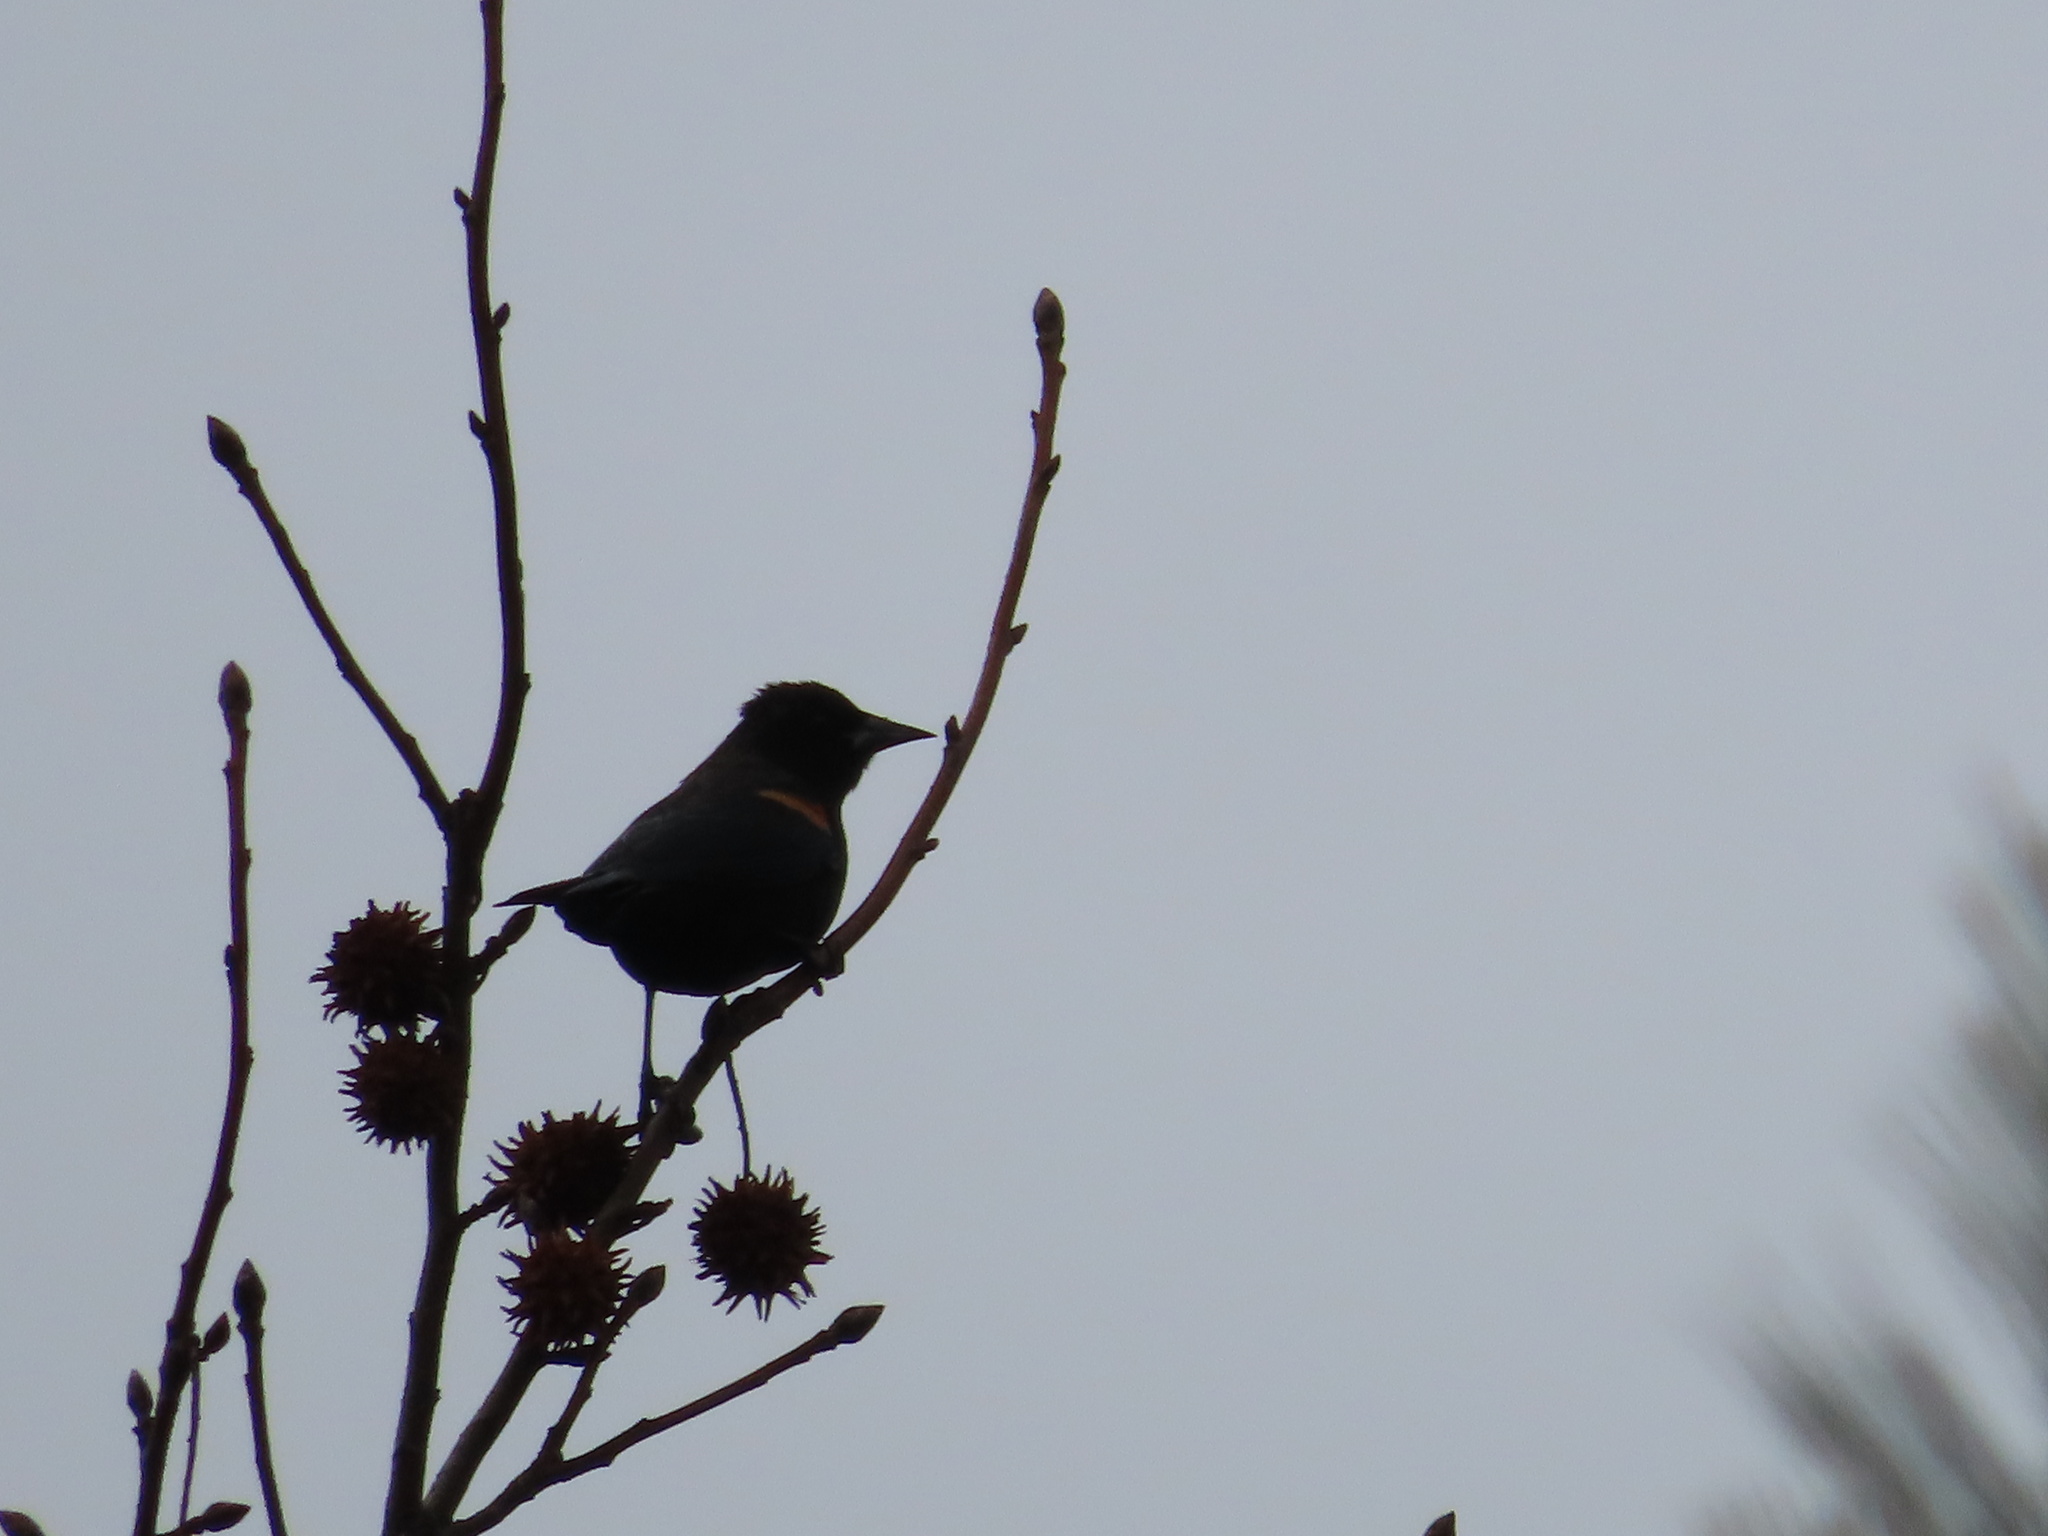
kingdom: Animalia
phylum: Chordata
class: Aves
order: Passeriformes
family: Icteridae
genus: Agelaius
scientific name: Agelaius phoeniceus
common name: Red-winged blackbird
